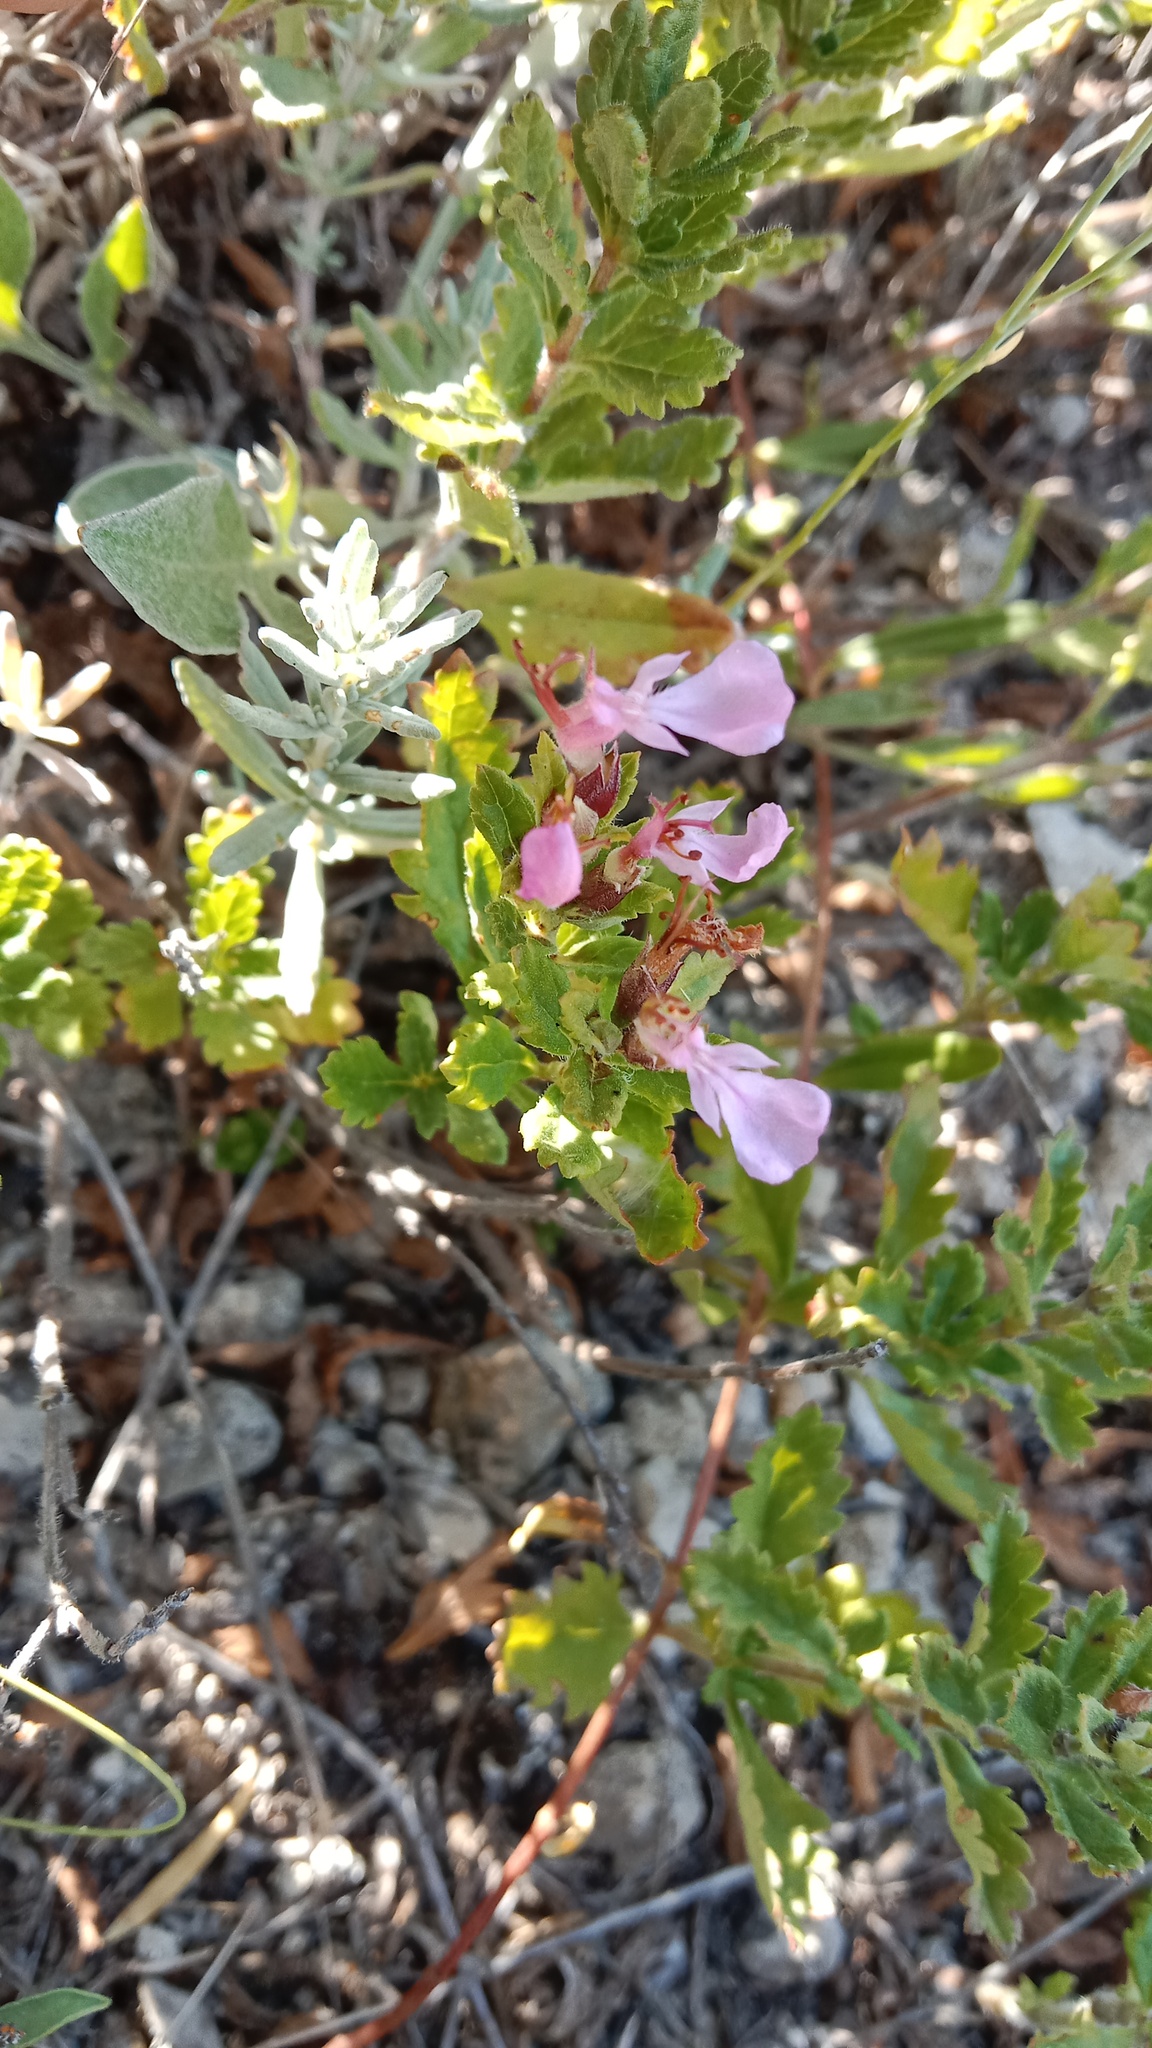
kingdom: Plantae
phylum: Tracheophyta
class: Magnoliopsida
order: Lamiales
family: Lamiaceae
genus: Teucrium
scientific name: Teucrium chamaedrys
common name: Wall germander
